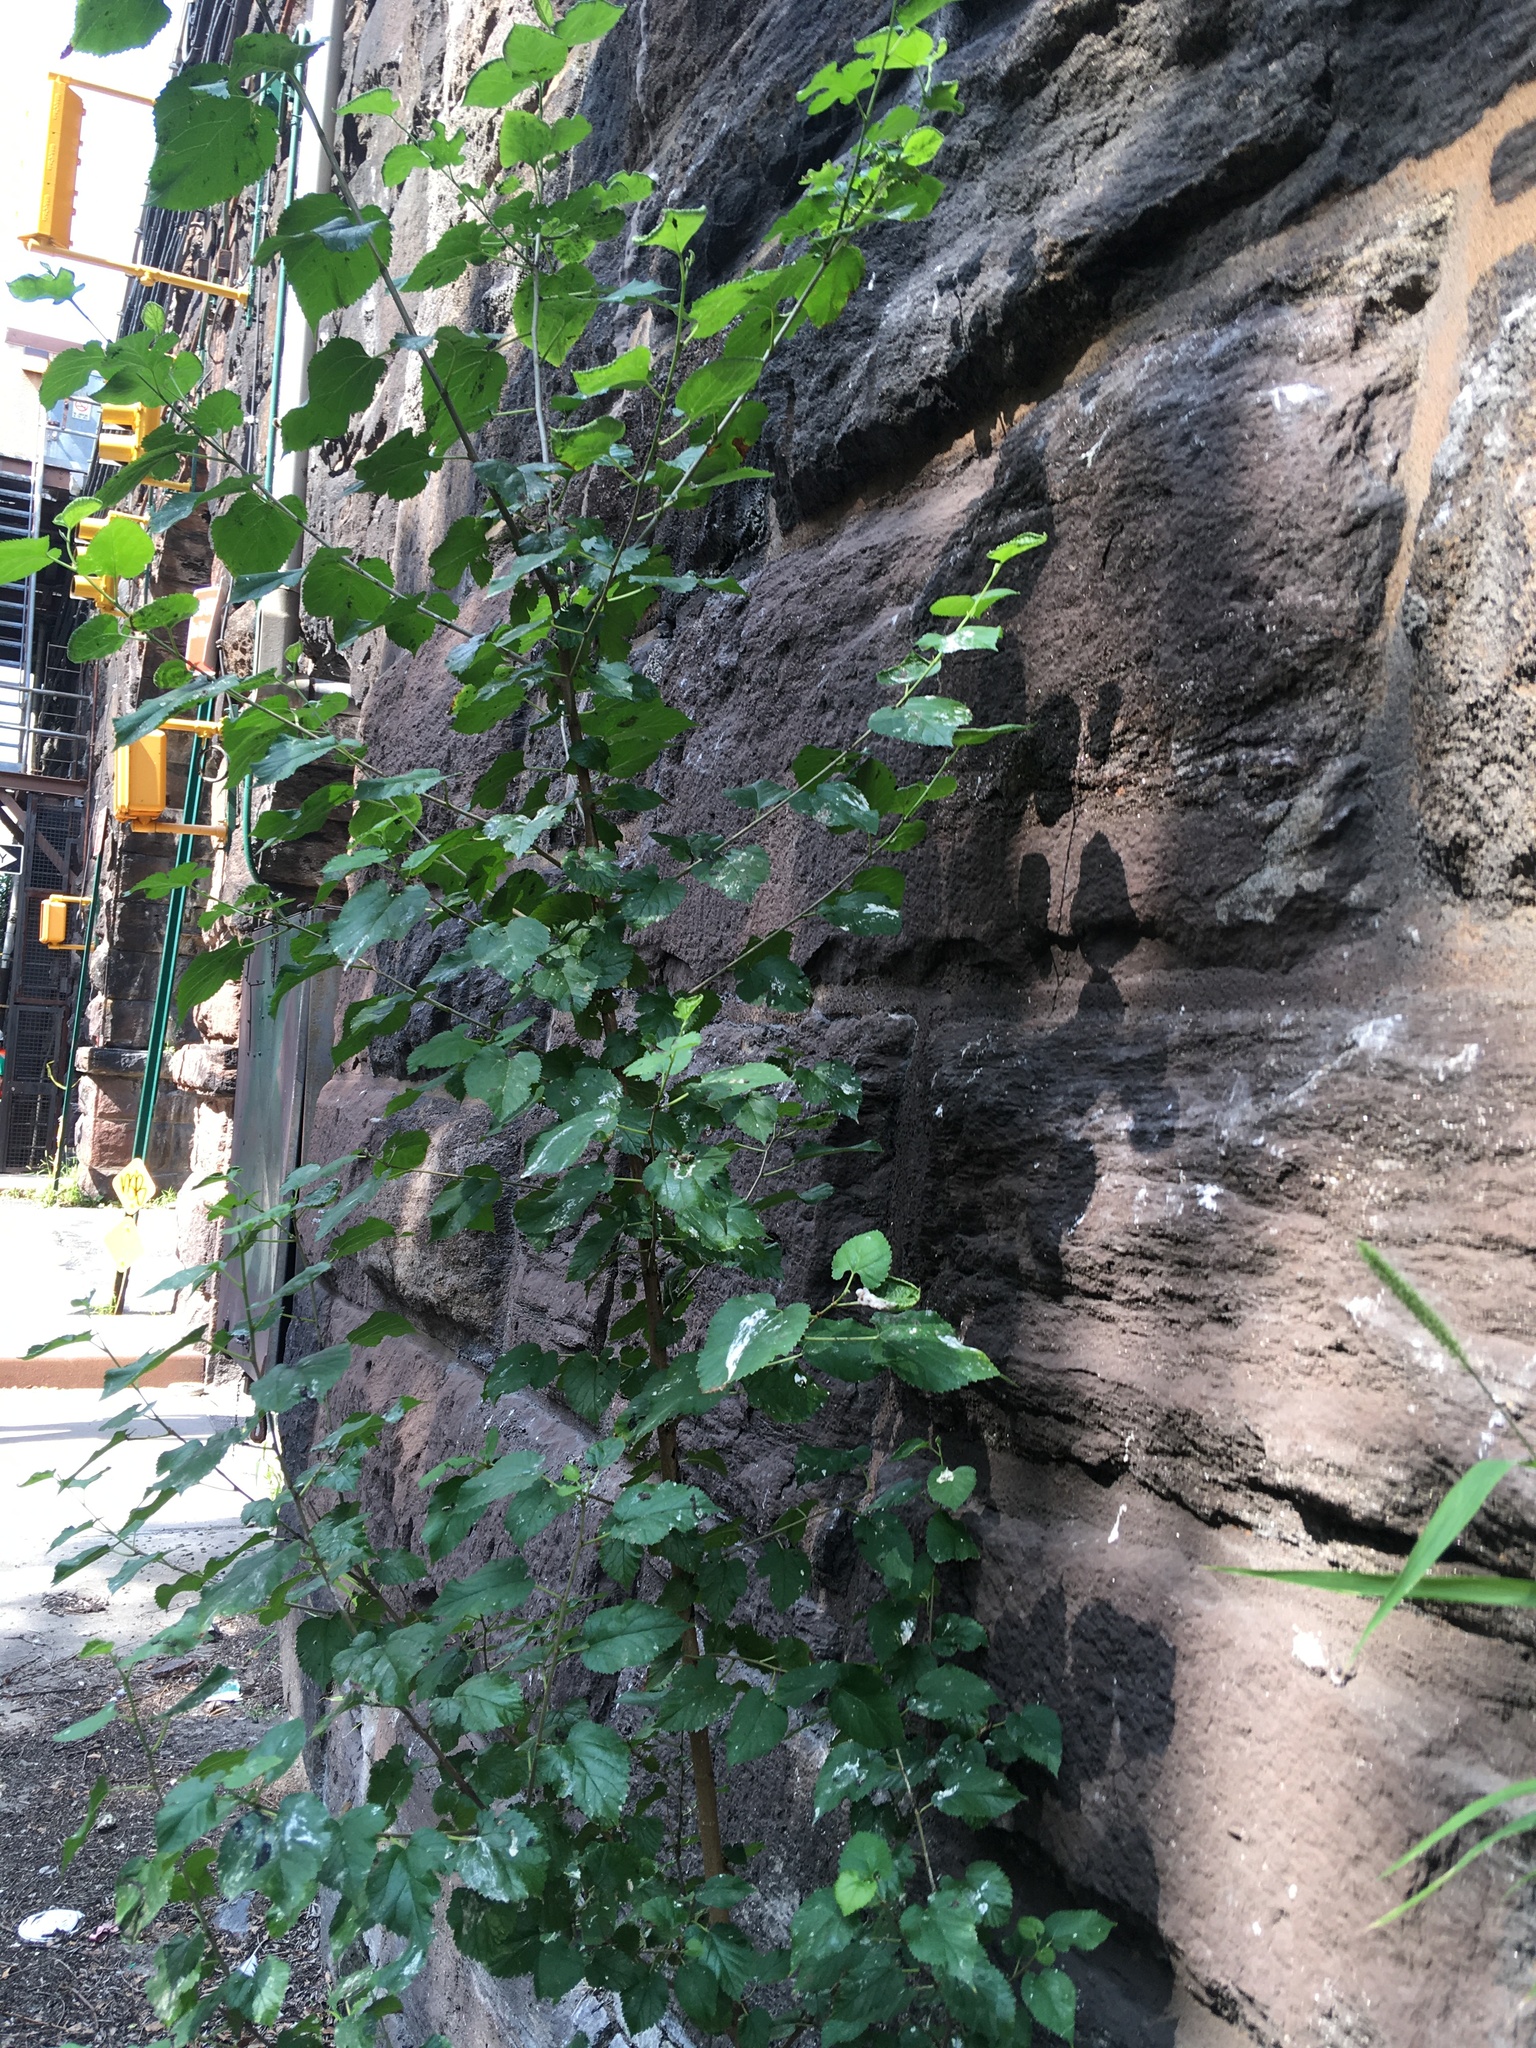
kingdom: Plantae
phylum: Tracheophyta
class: Magnoliopsida
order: Rosales
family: Moraceae
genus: Morus
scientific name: Morus alba
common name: White mulberry
